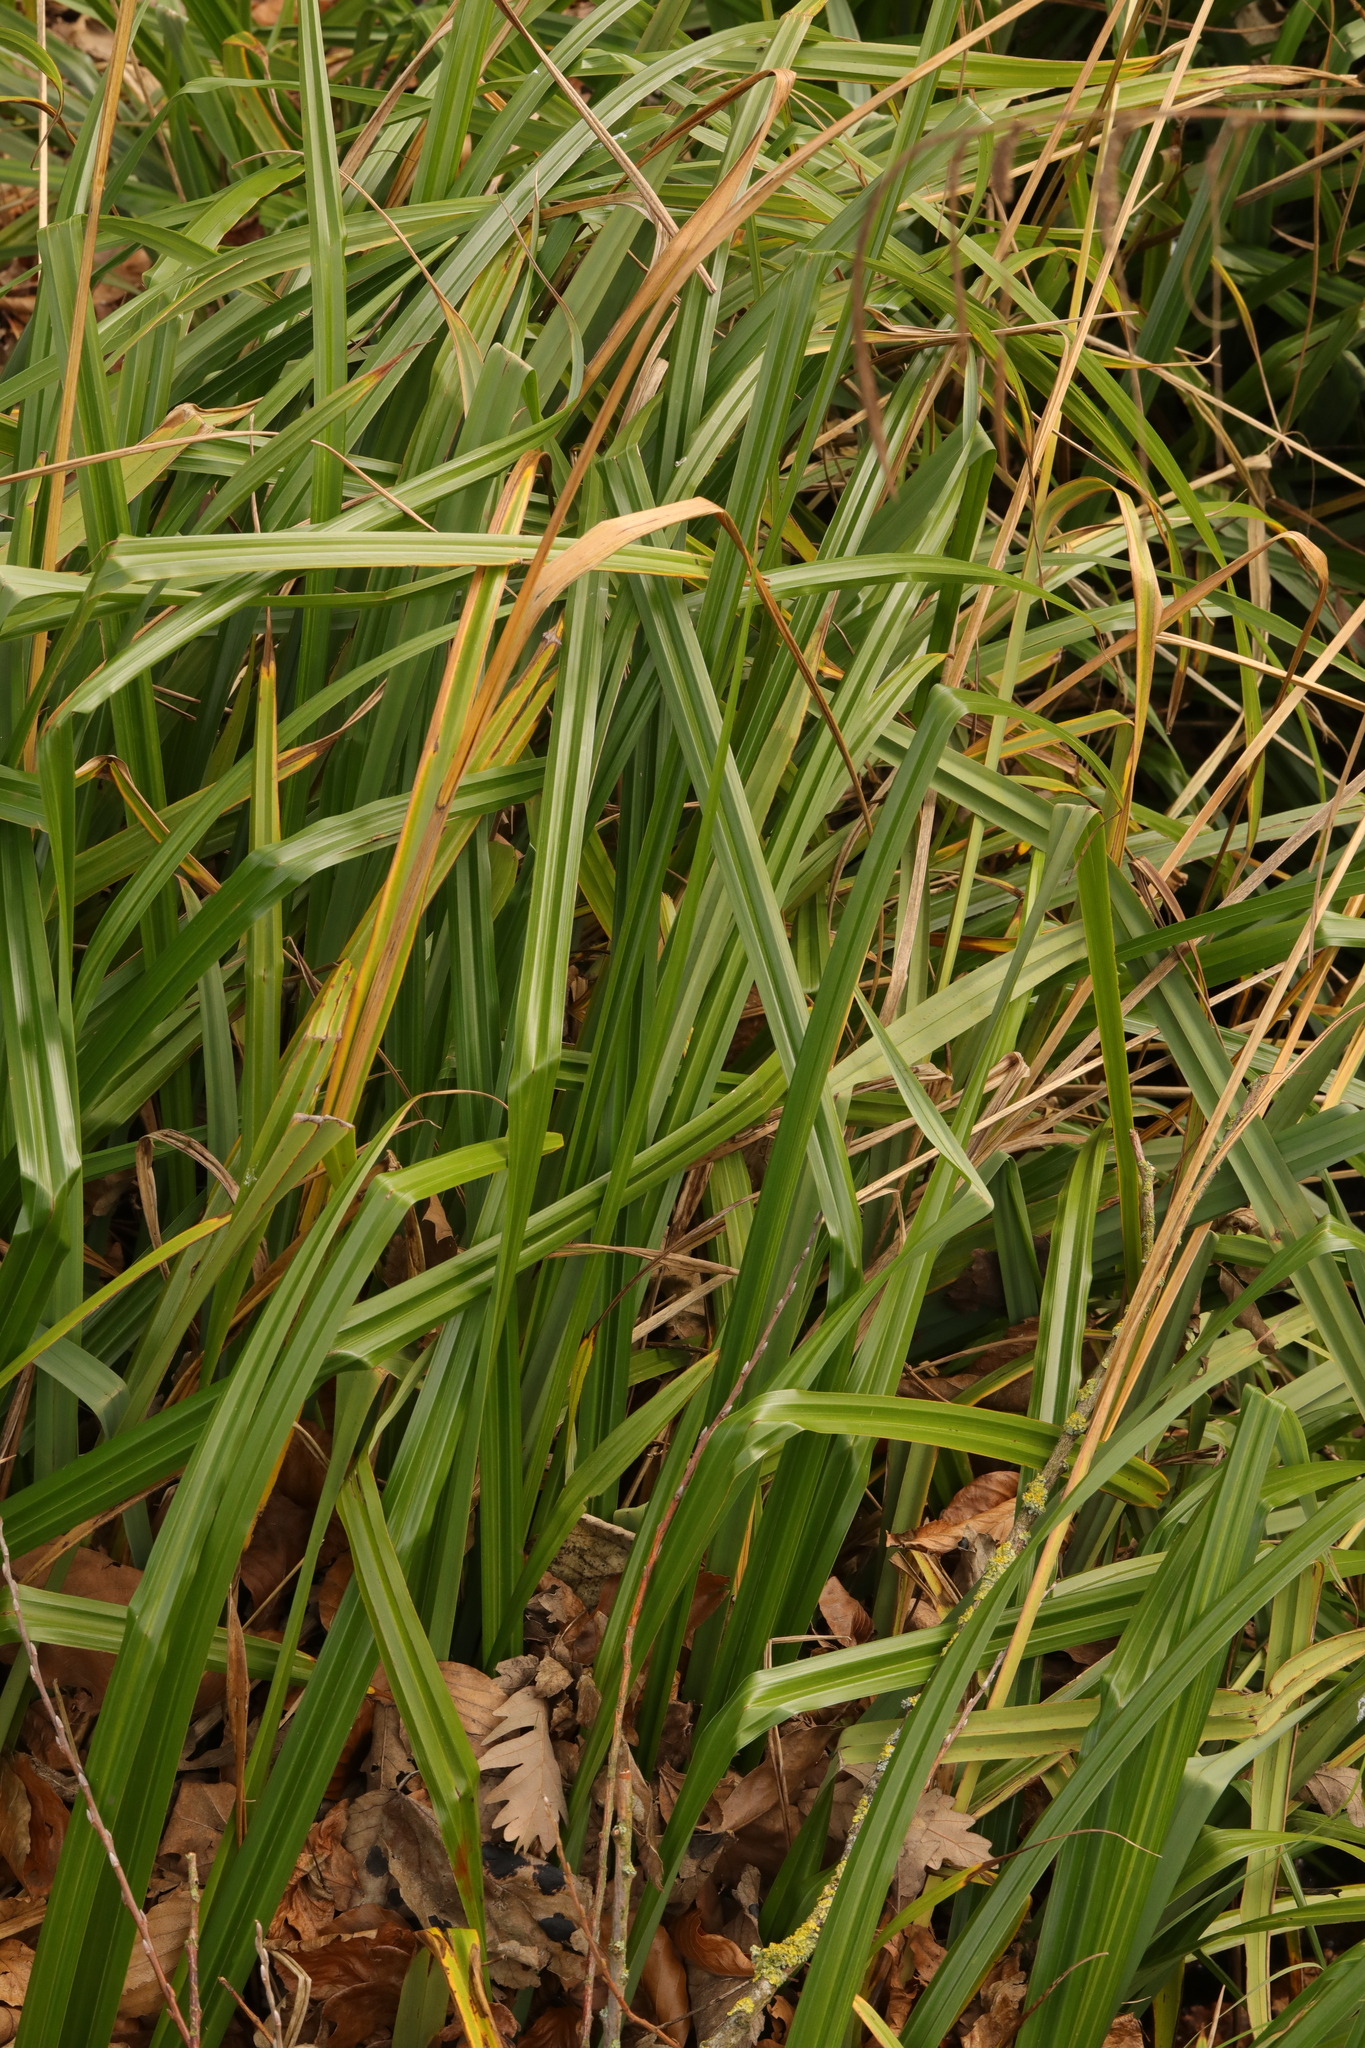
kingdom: Plantae
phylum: Tracheophyta
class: Liliopsida
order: Poales
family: Cyperaceae
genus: Carex
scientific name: Carex pendula
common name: Pendulous sedge
